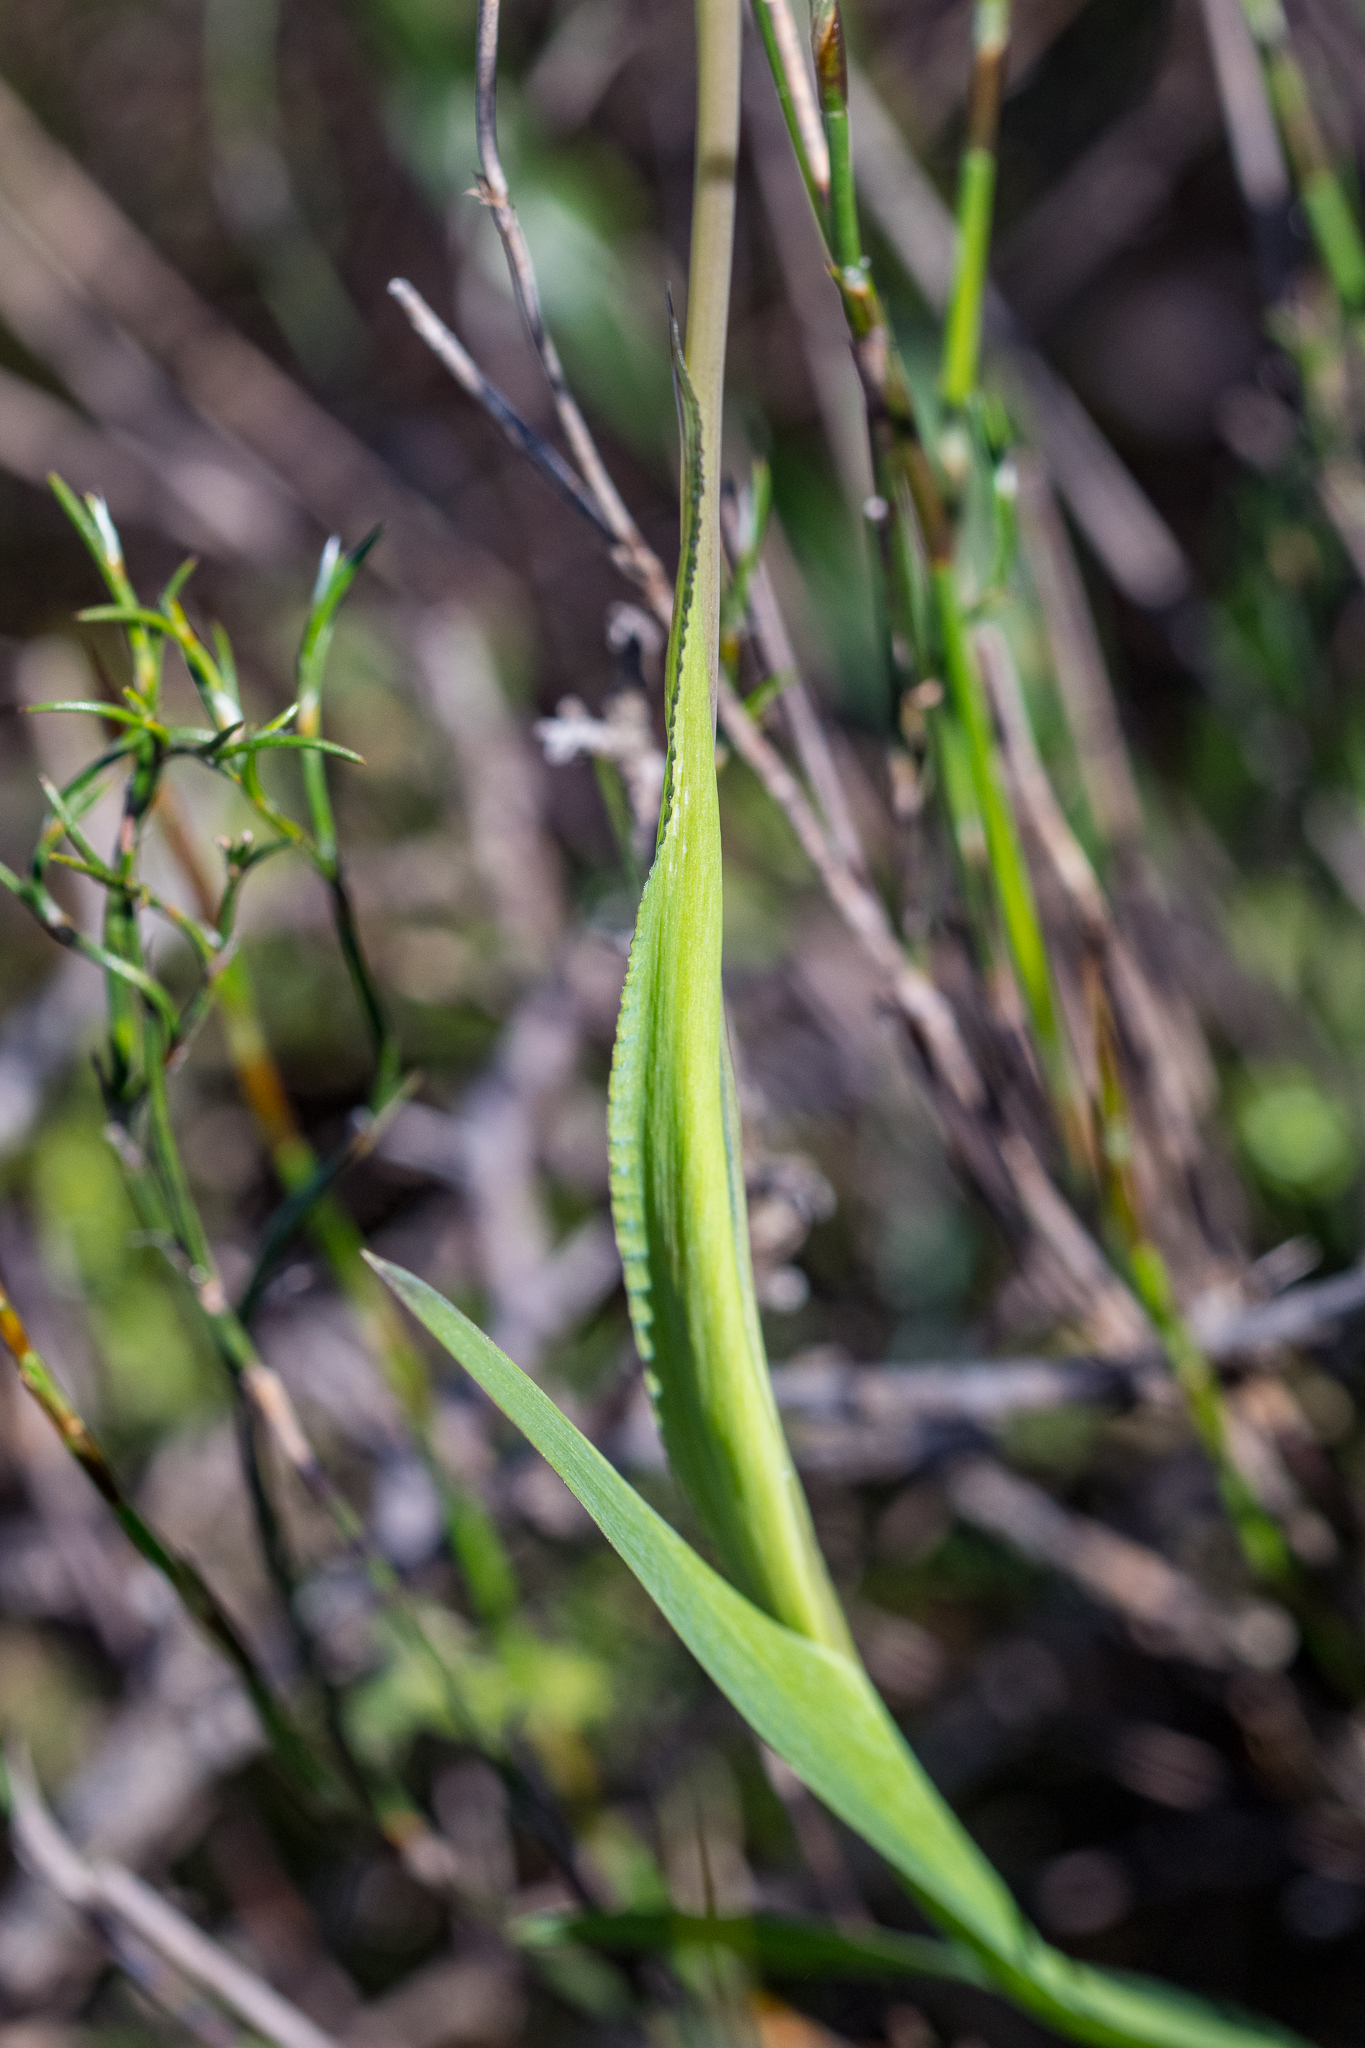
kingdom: Plantae
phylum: Tracheophyta
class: Liliopsida
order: Asparagales
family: Iridaceae
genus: Sparaxis
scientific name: Sparaxis villosa
